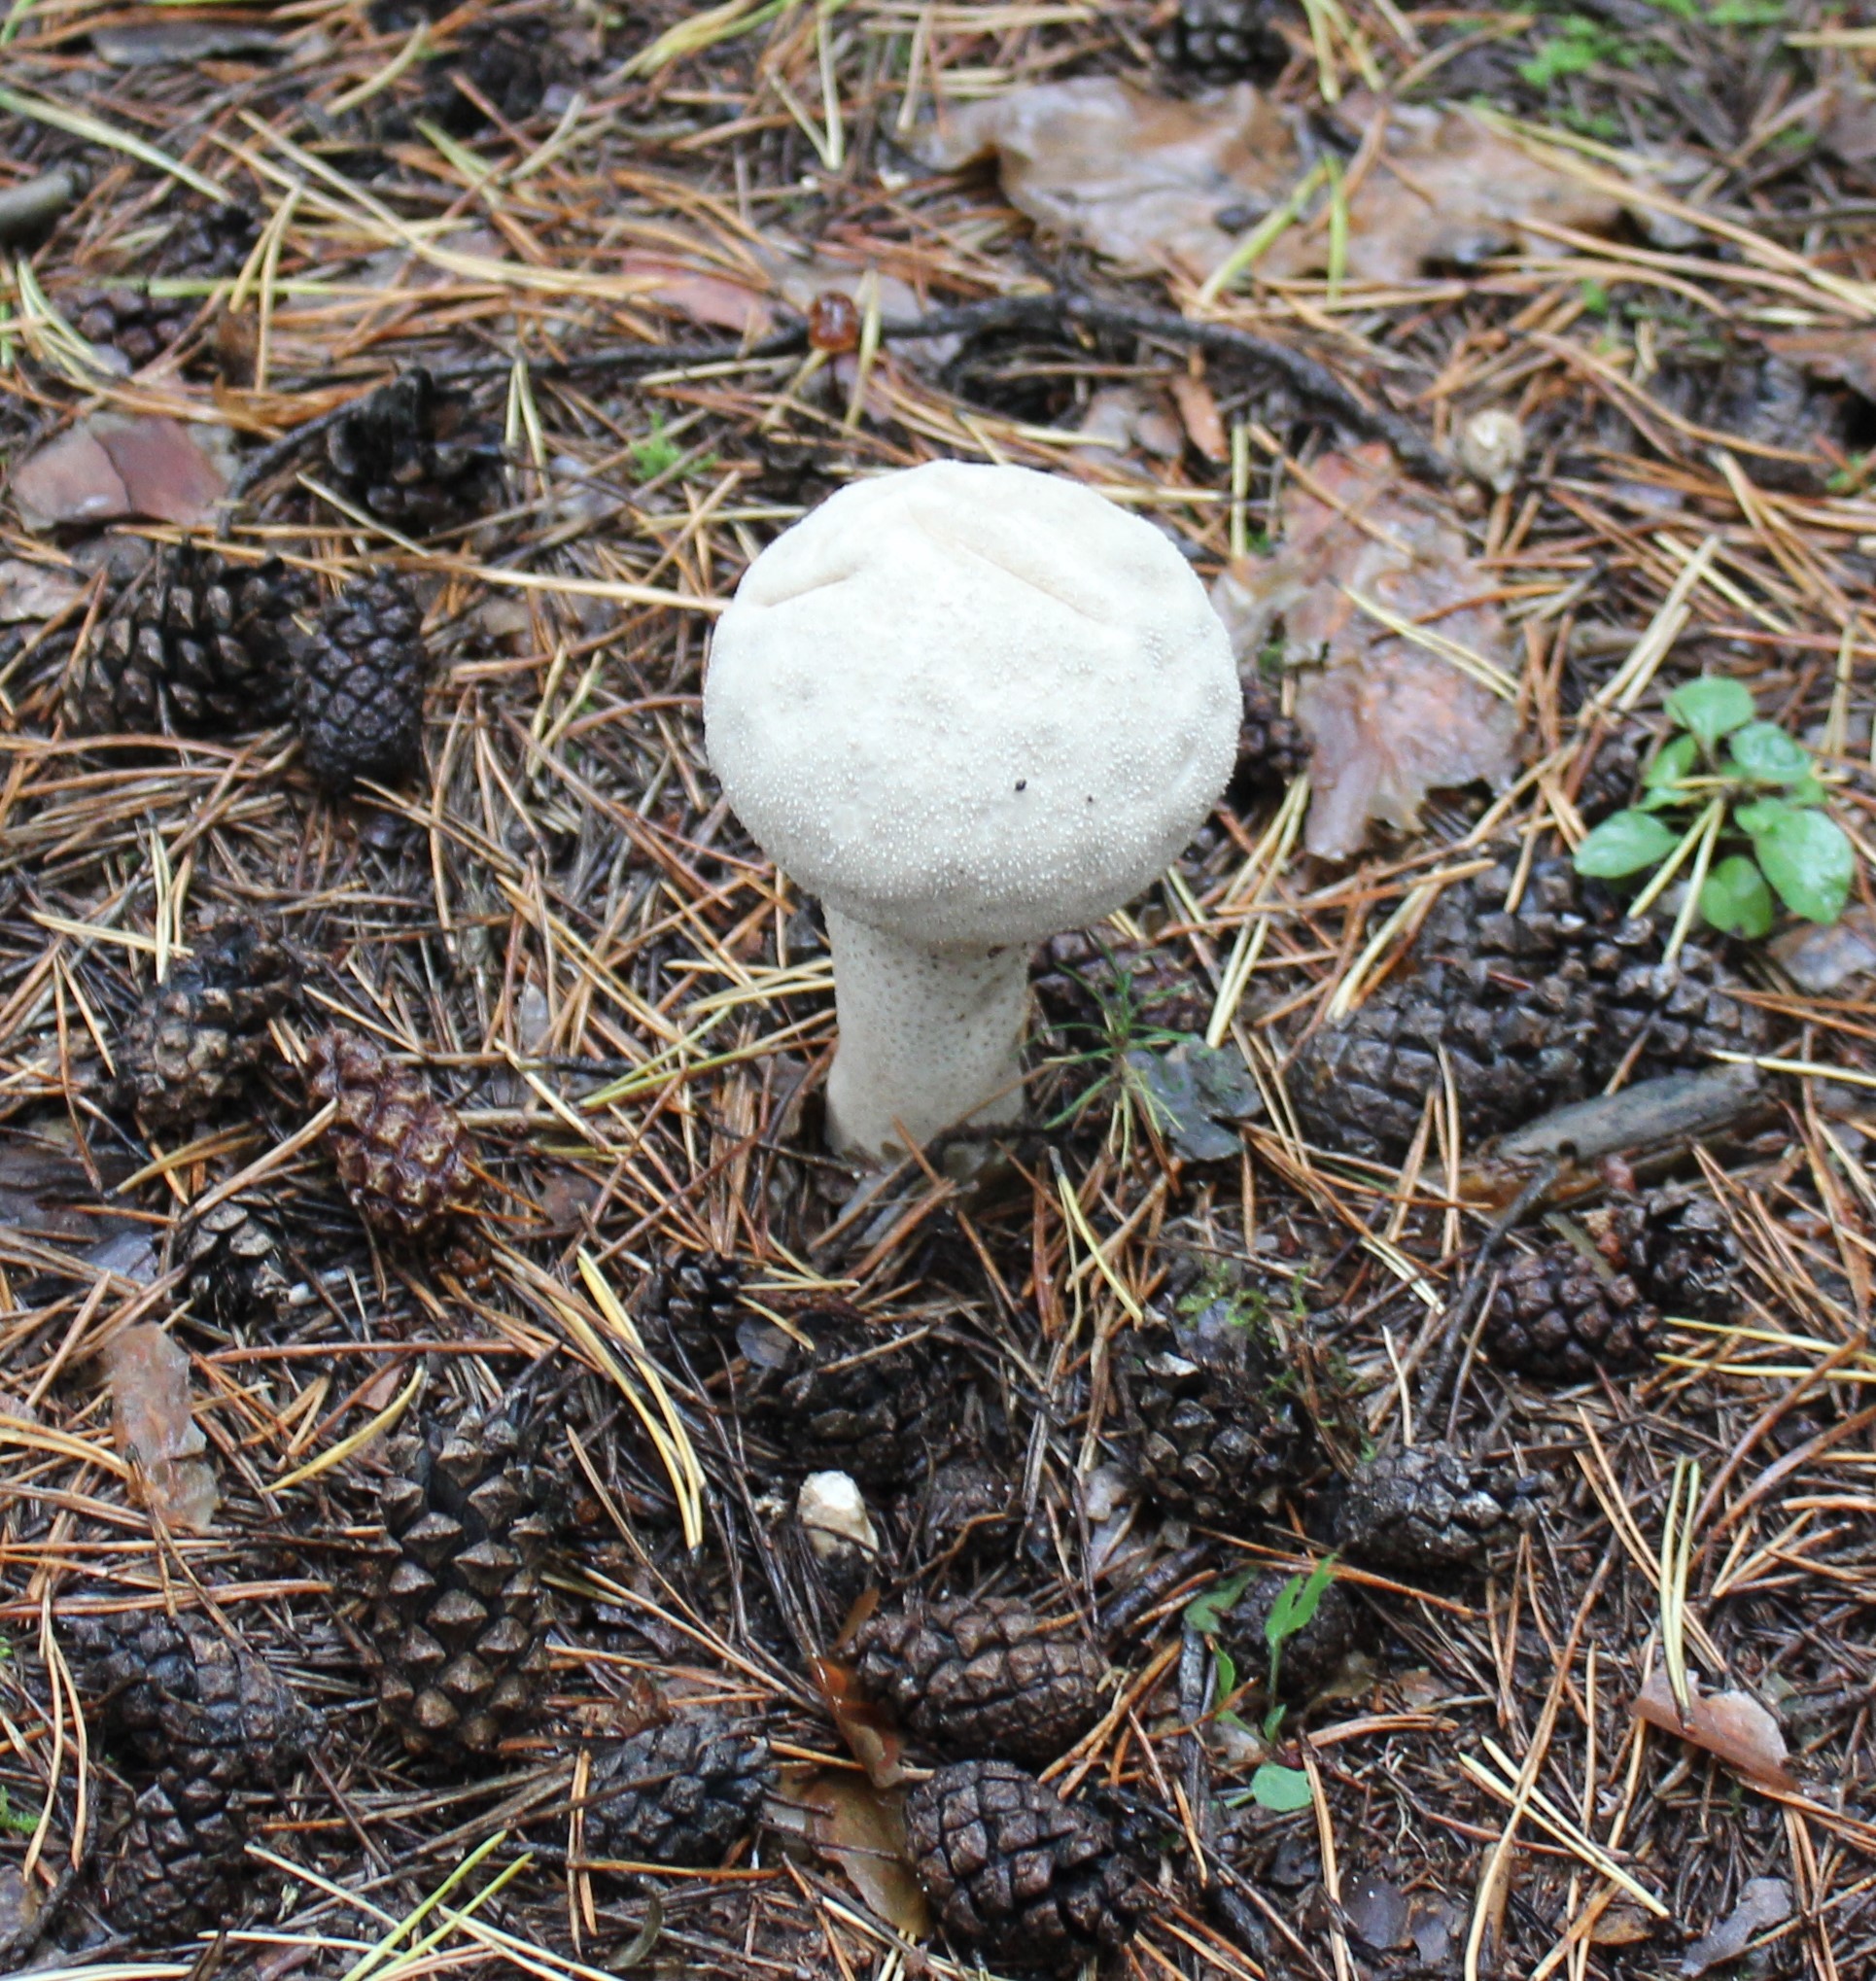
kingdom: Fungi
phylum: Basidiomycota
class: Agaricomycetes
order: Agaricales
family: Lycoperdaceae
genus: Lycoperdon
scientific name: Lycoperdon excipuliforme
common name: Pestle puffball
